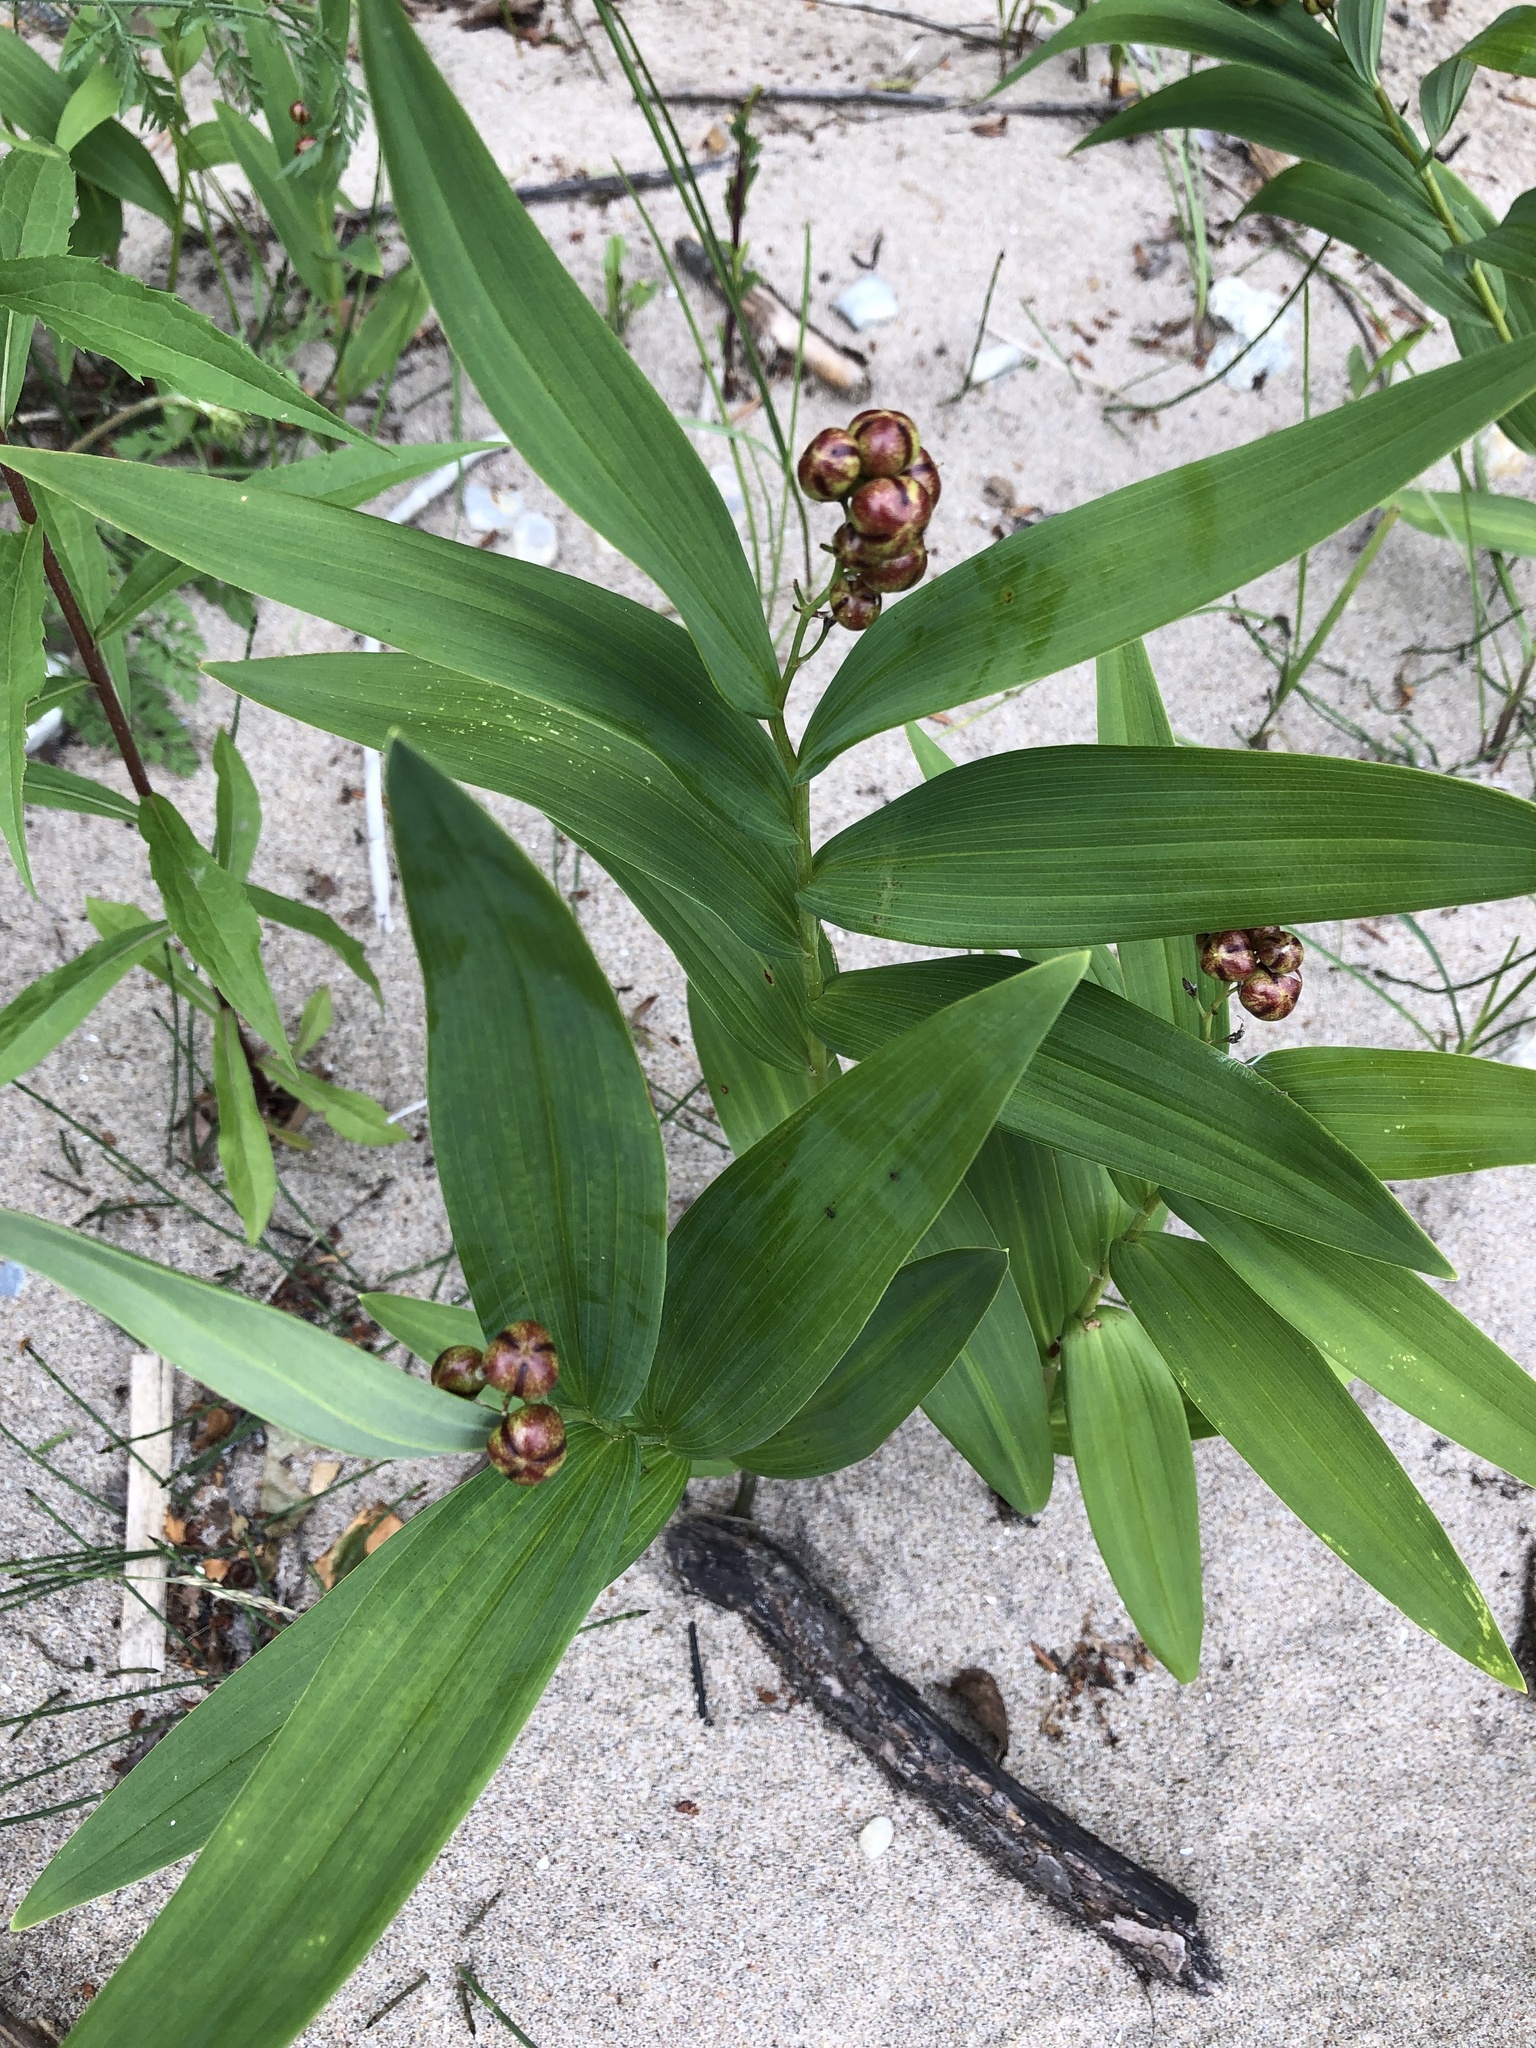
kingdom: Plantae
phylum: Tracheophyta
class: Liliopsida
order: Asparagales
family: Asparagaceae
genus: Maianthemum
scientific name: Maianthemum stellatum
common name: Little false solomon's seal
